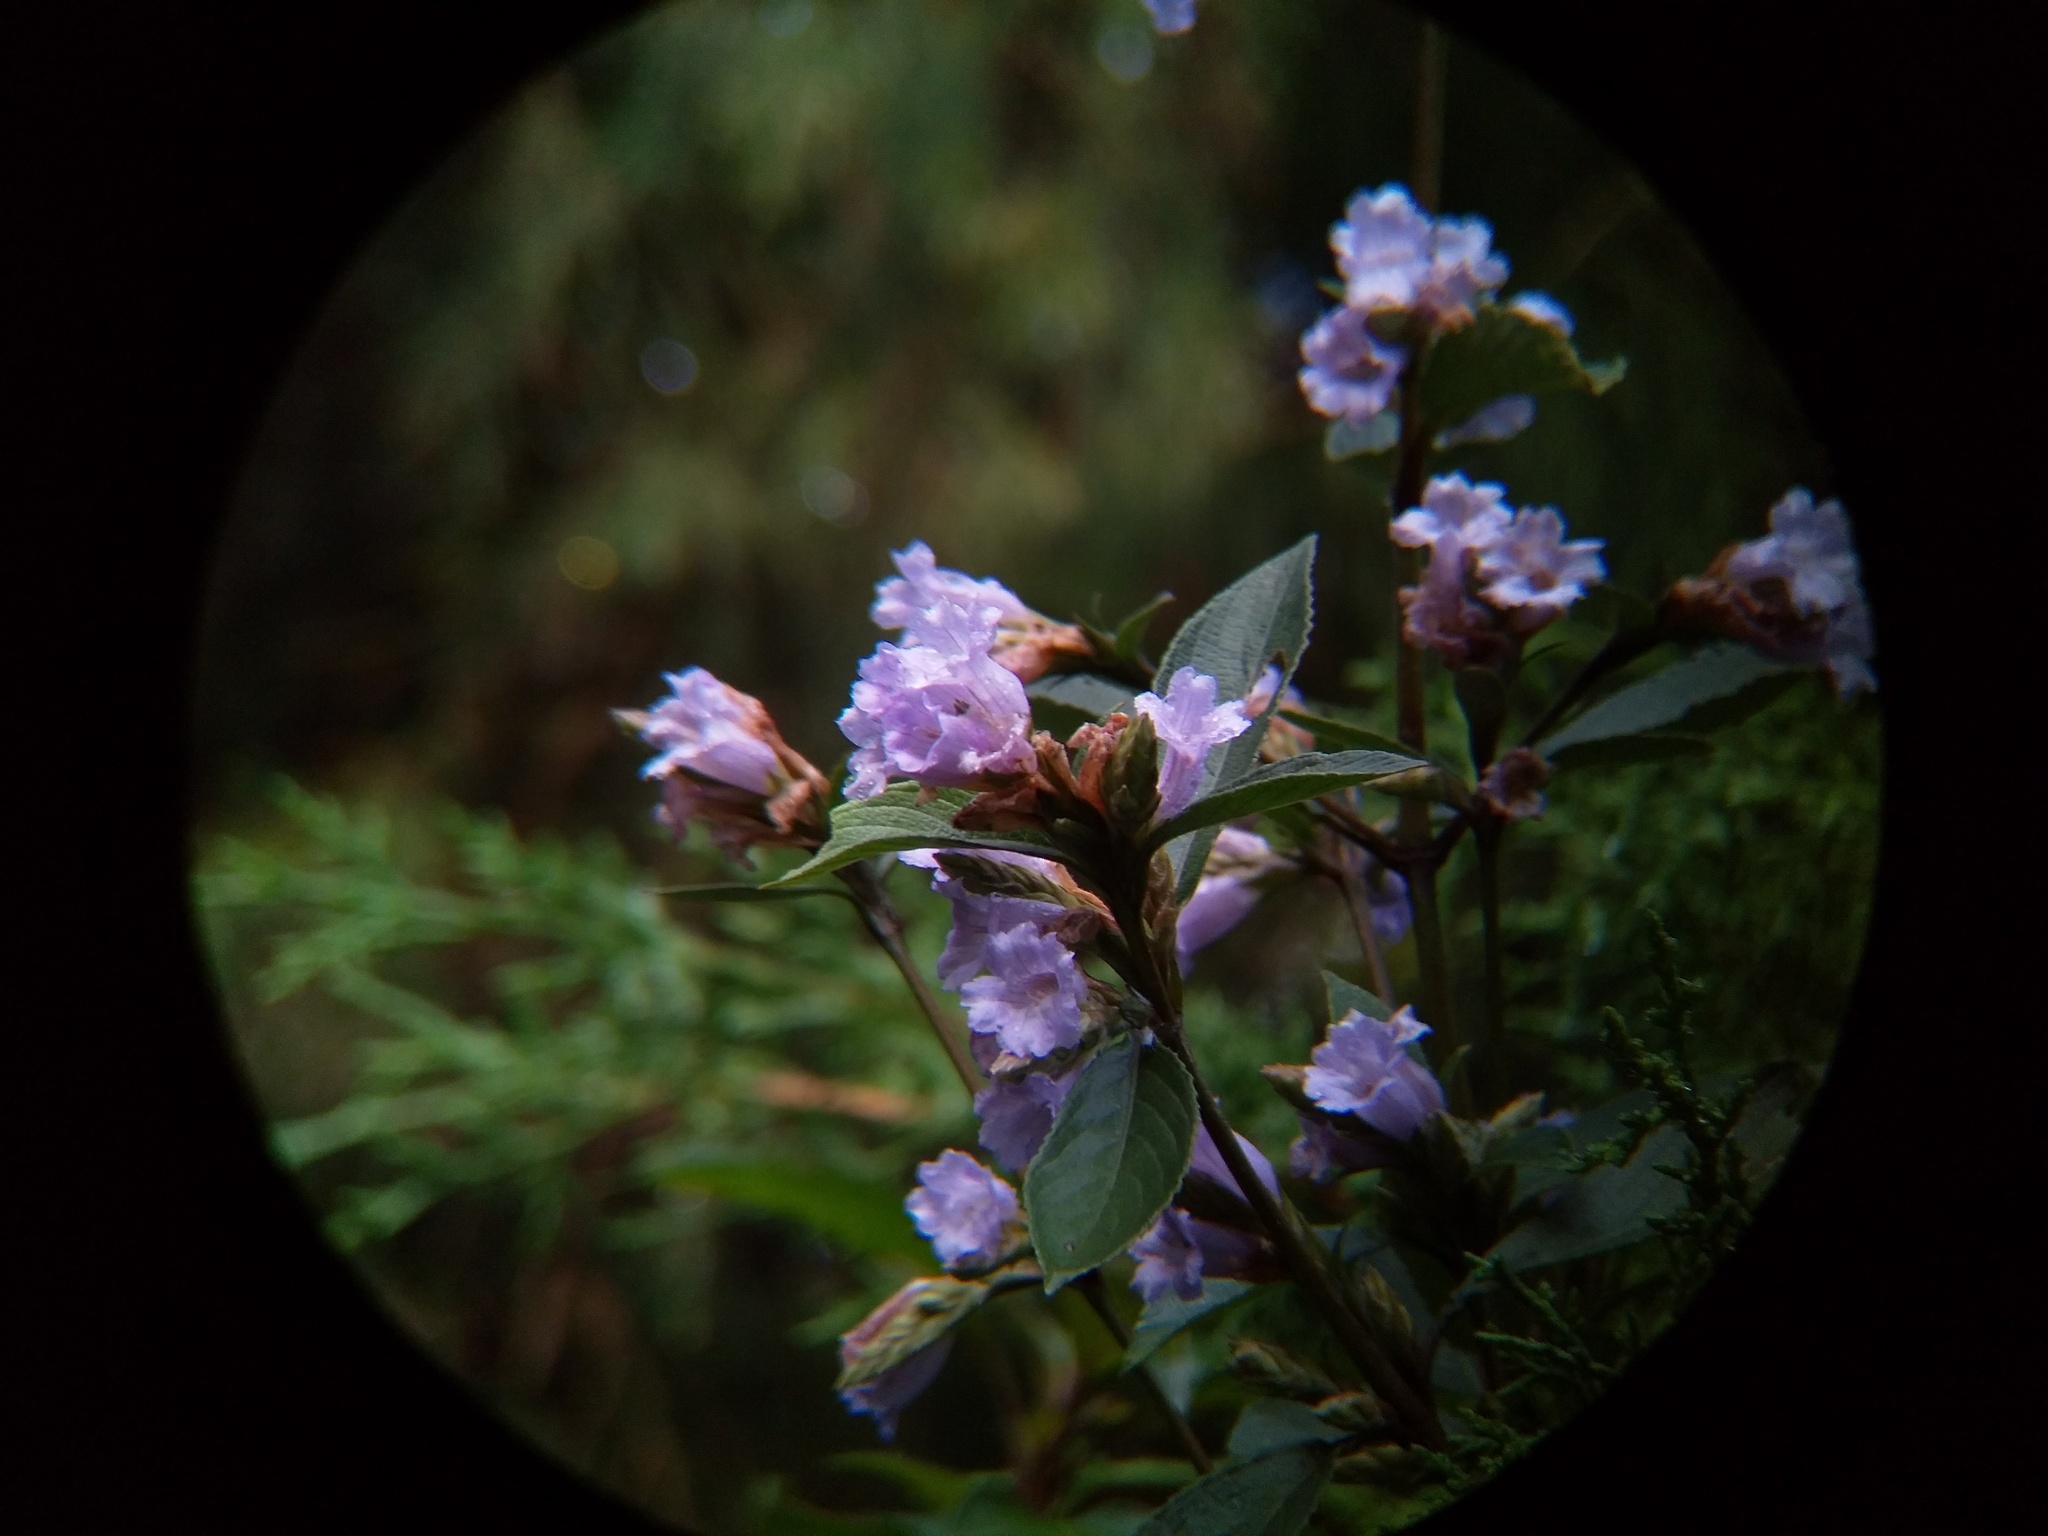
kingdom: Plantae
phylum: Tracheophyta
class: Magnoliopsida
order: Lamiales
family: Acanthaceae
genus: Strobilanthes
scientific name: Strobilanthes kunthiana
